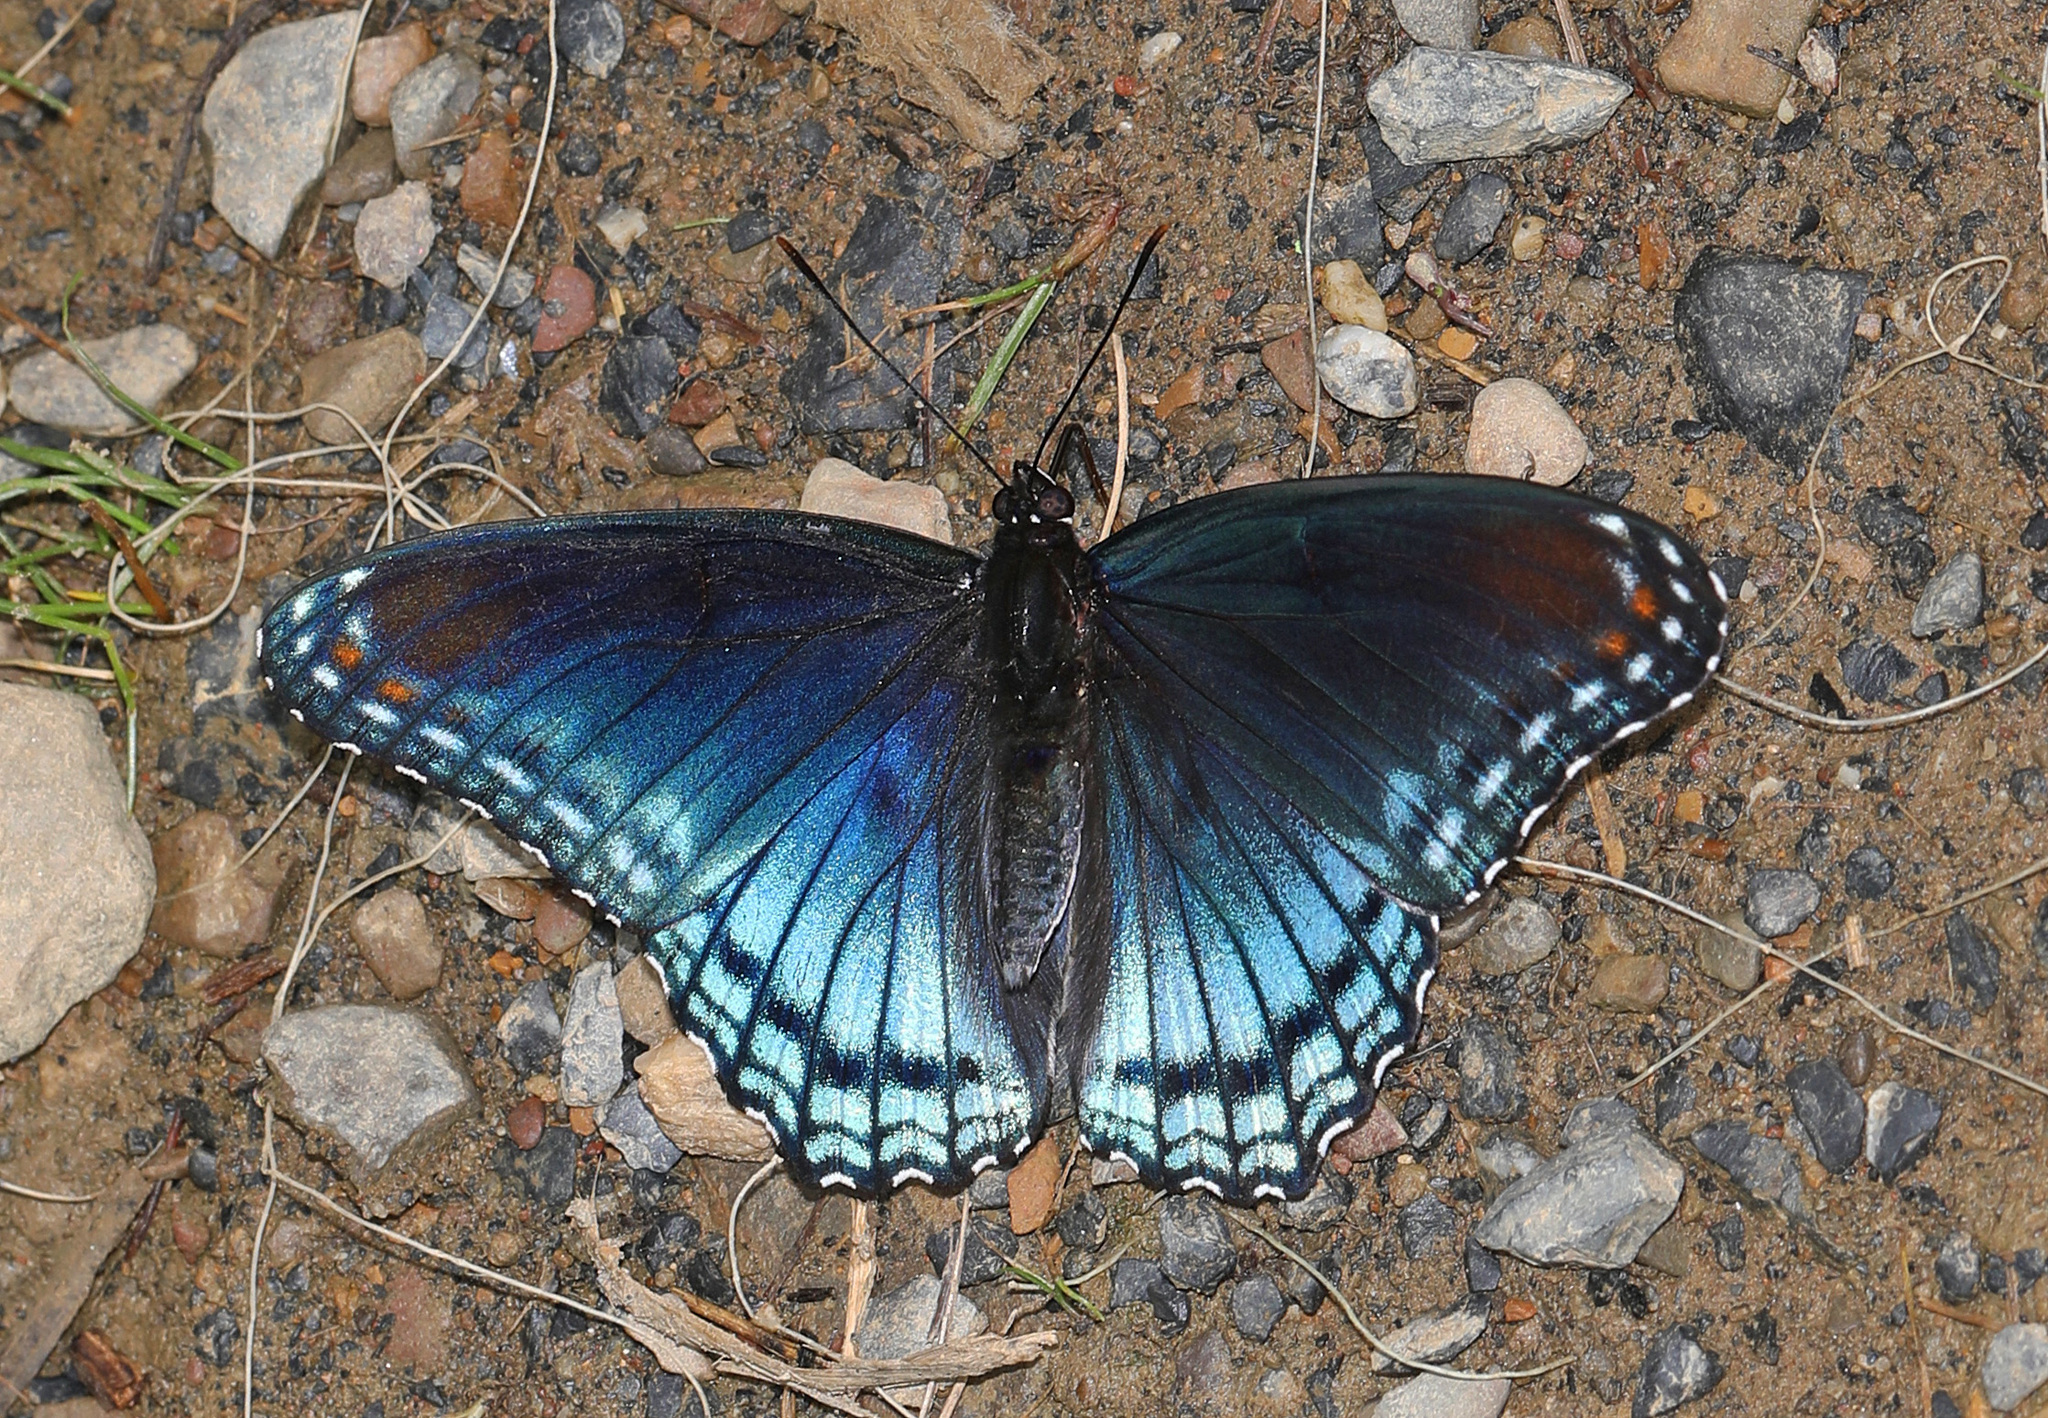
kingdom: Animalia
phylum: Arthropoda
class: Insecta
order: Lepidoptera
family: Nymphalidae
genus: Limenitis
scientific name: Limenitis astyanax
